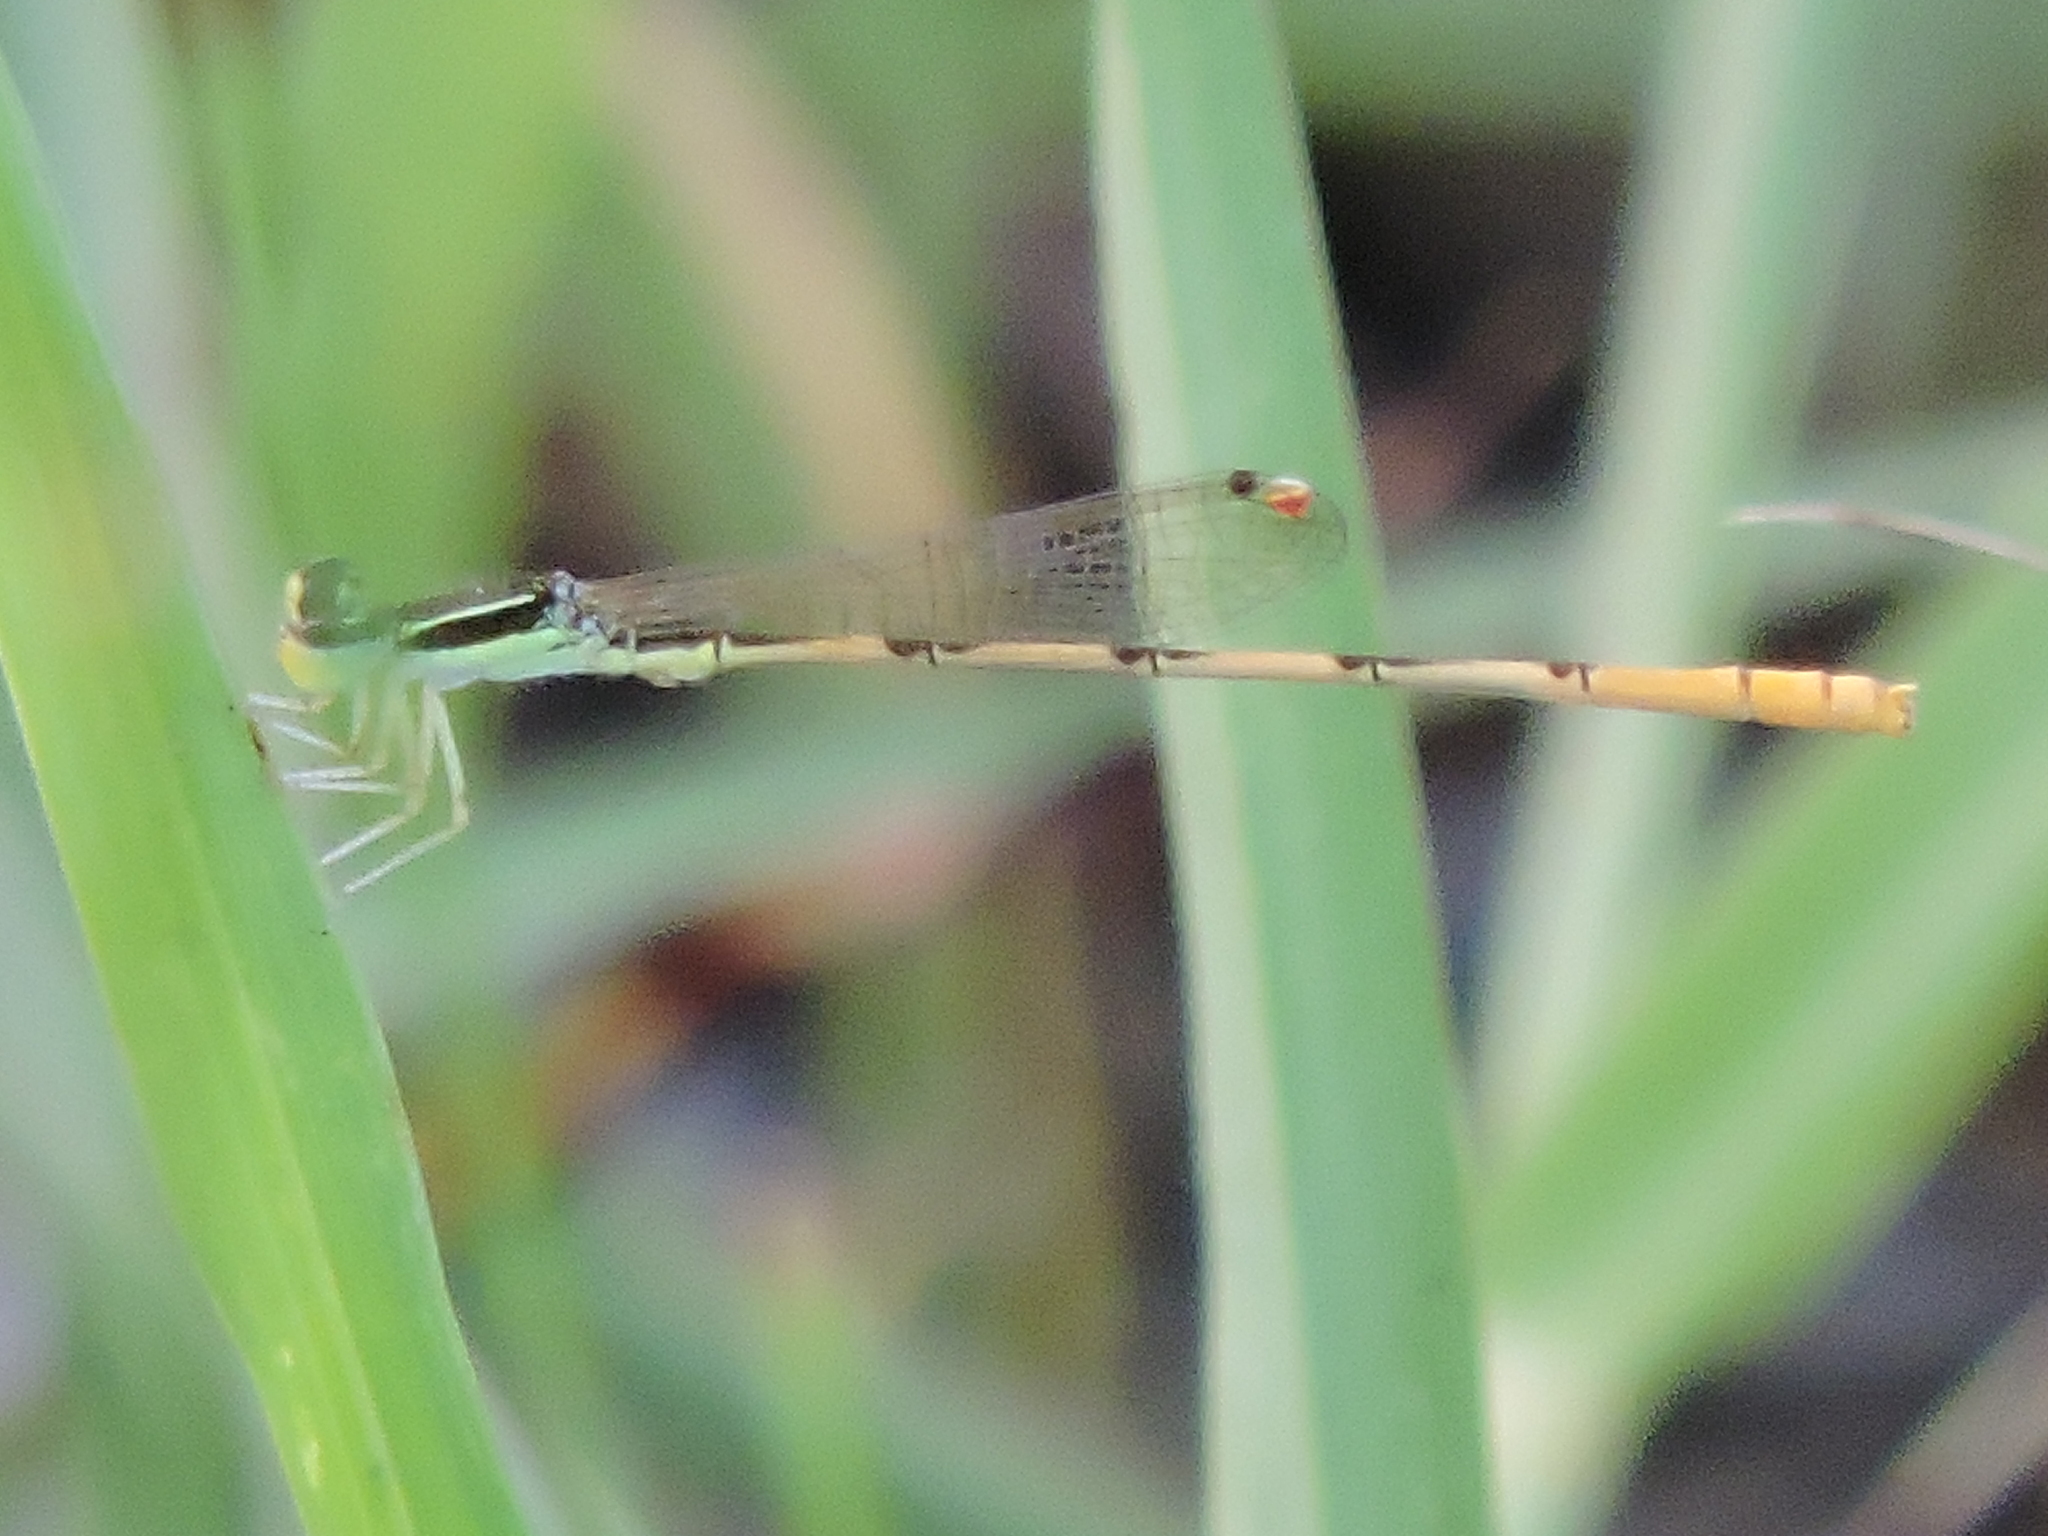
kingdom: Animalia
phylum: Arthropoda
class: Insecta
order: Odonata
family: Coenagrionidae
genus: Ischnura
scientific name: Ischnura hastata
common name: Citrine forktail
